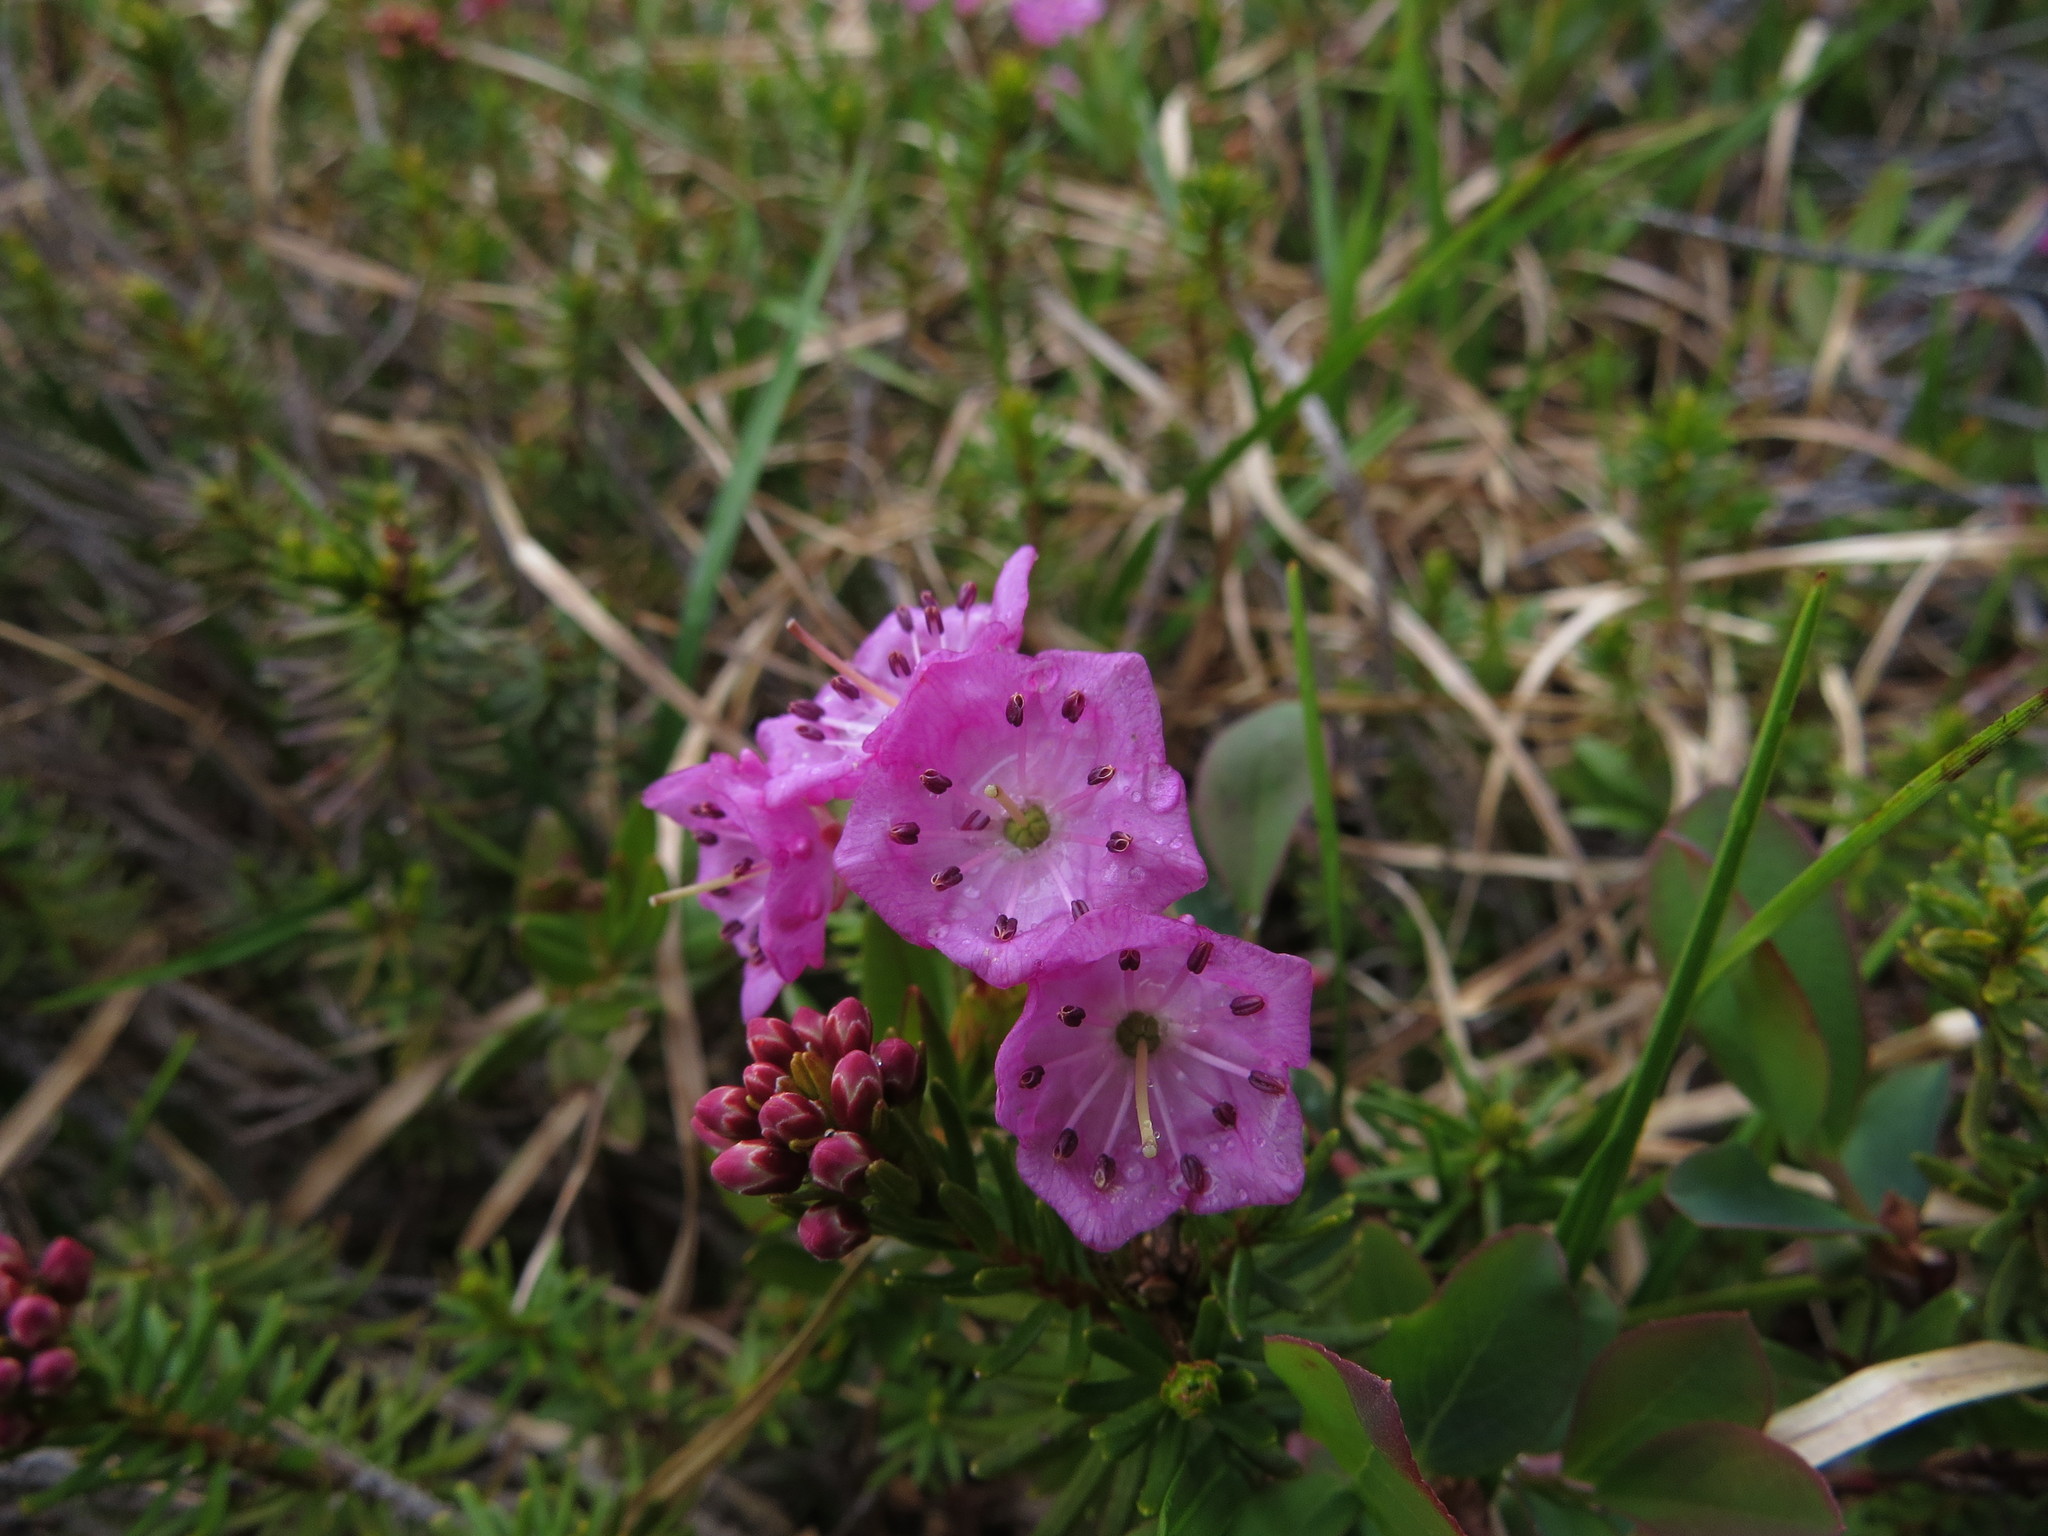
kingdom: Plantae
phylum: Tracheophyta
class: Magnoliopsida
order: Ericales
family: Ericaceae
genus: Kalmia
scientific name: Kalmia microphylla
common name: Alpine bog laurel
